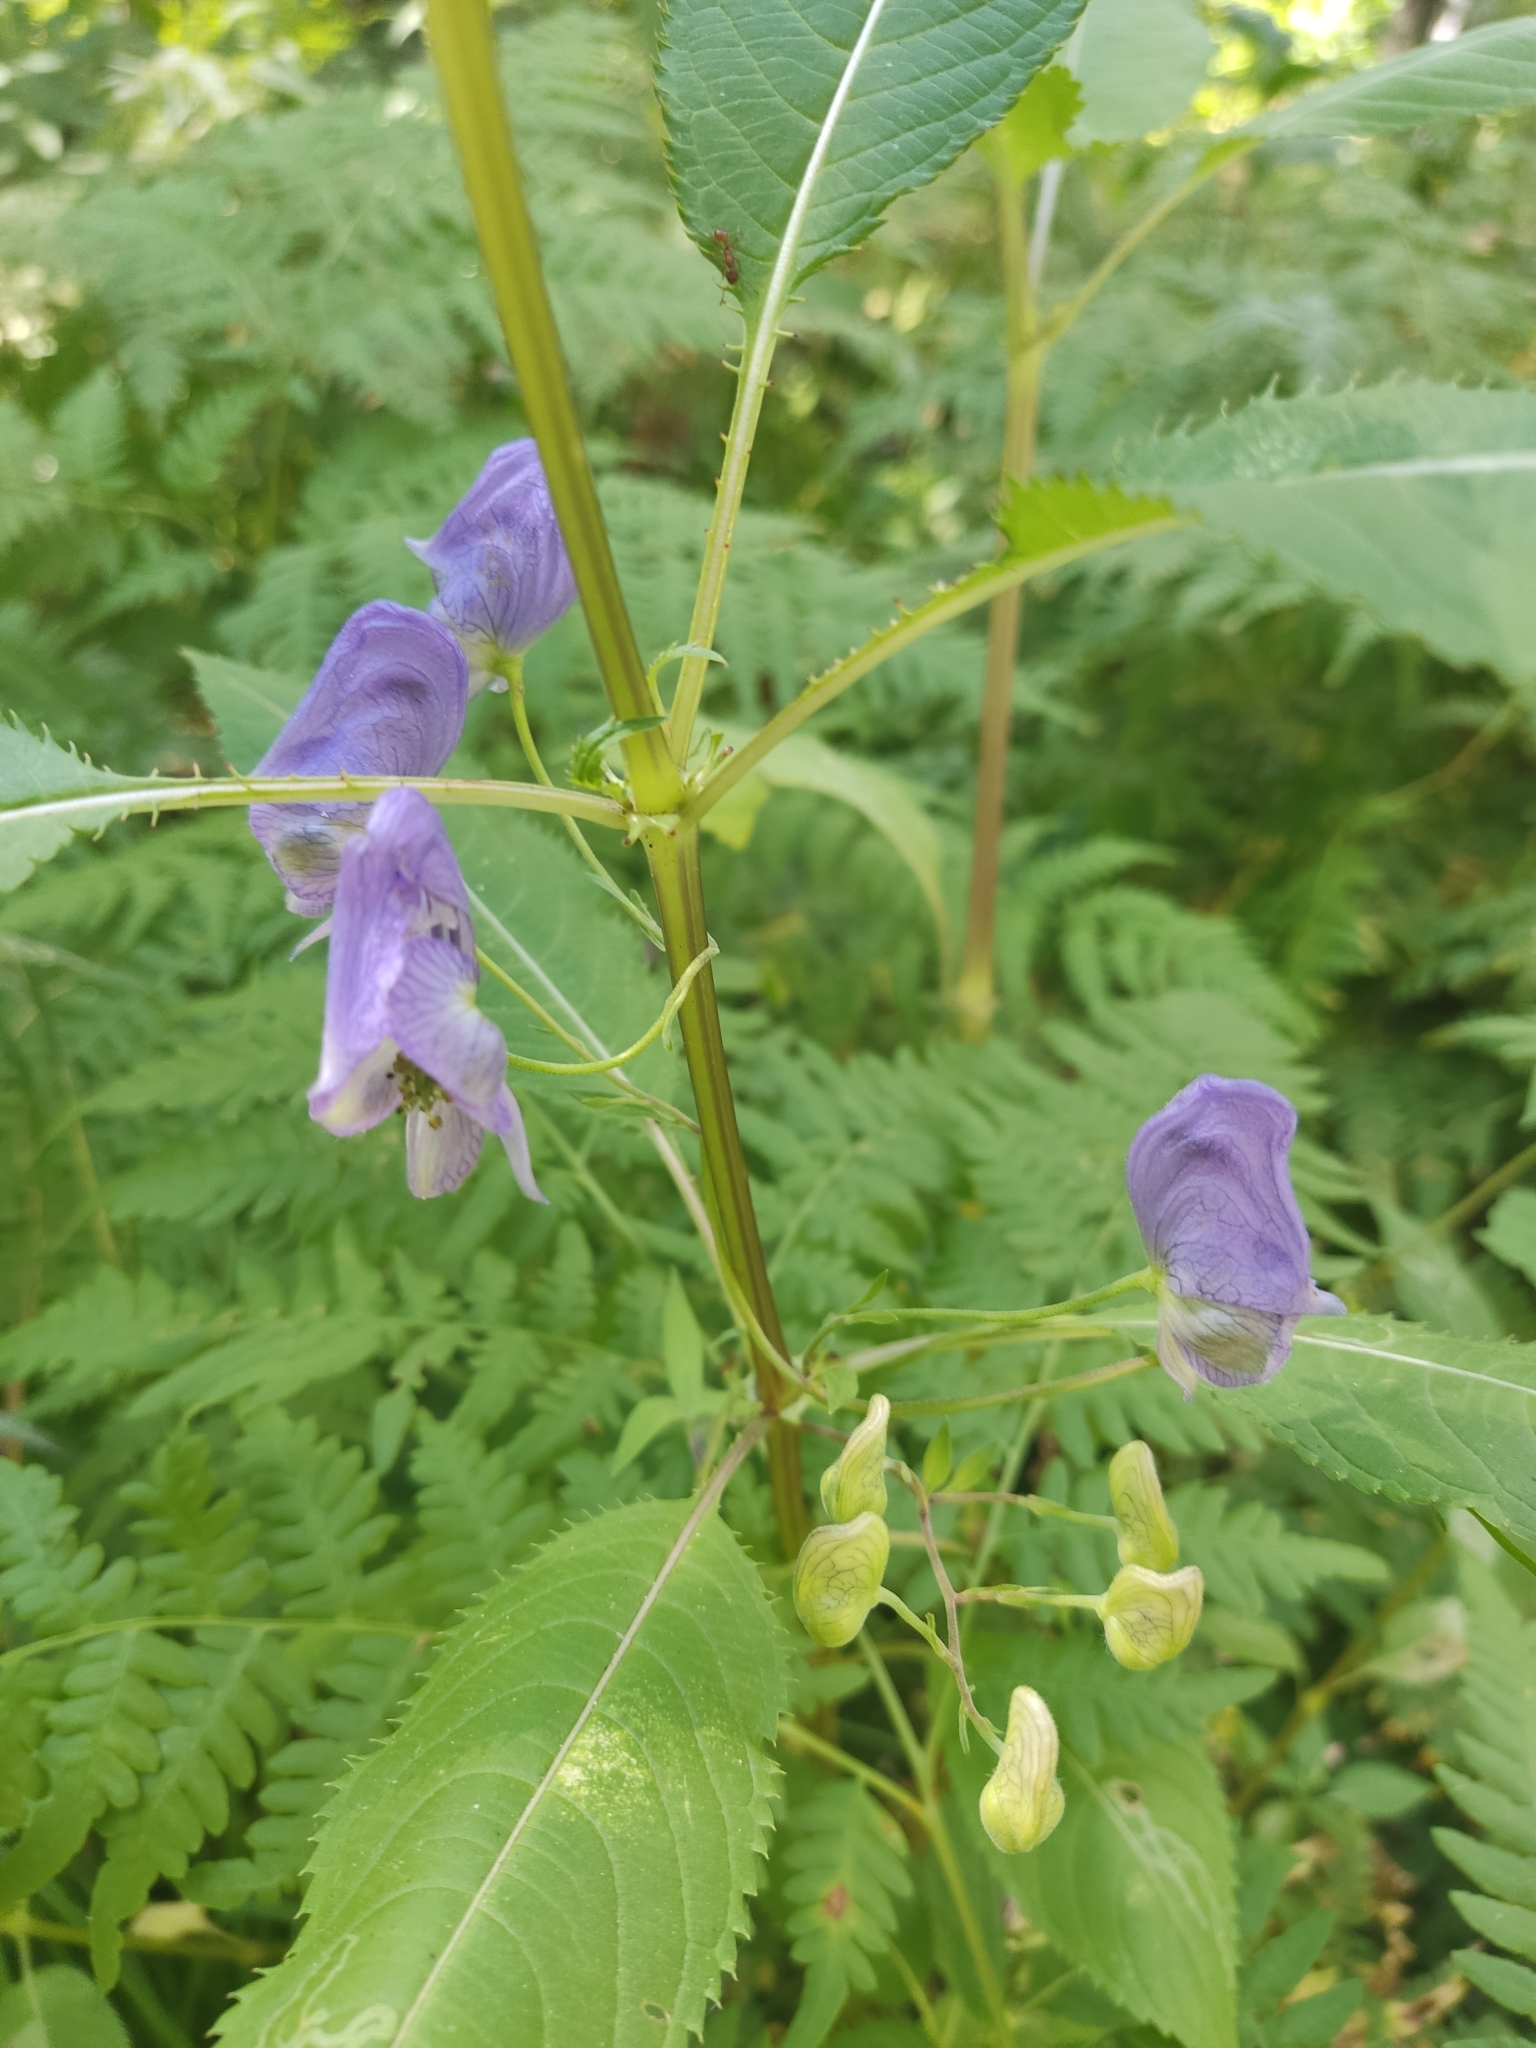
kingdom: Plantae
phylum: Tracheophyta
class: Magnoliopsida
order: Ranunculales
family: Ranunculaceae
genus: Aconitum
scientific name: Aconitum volubile
